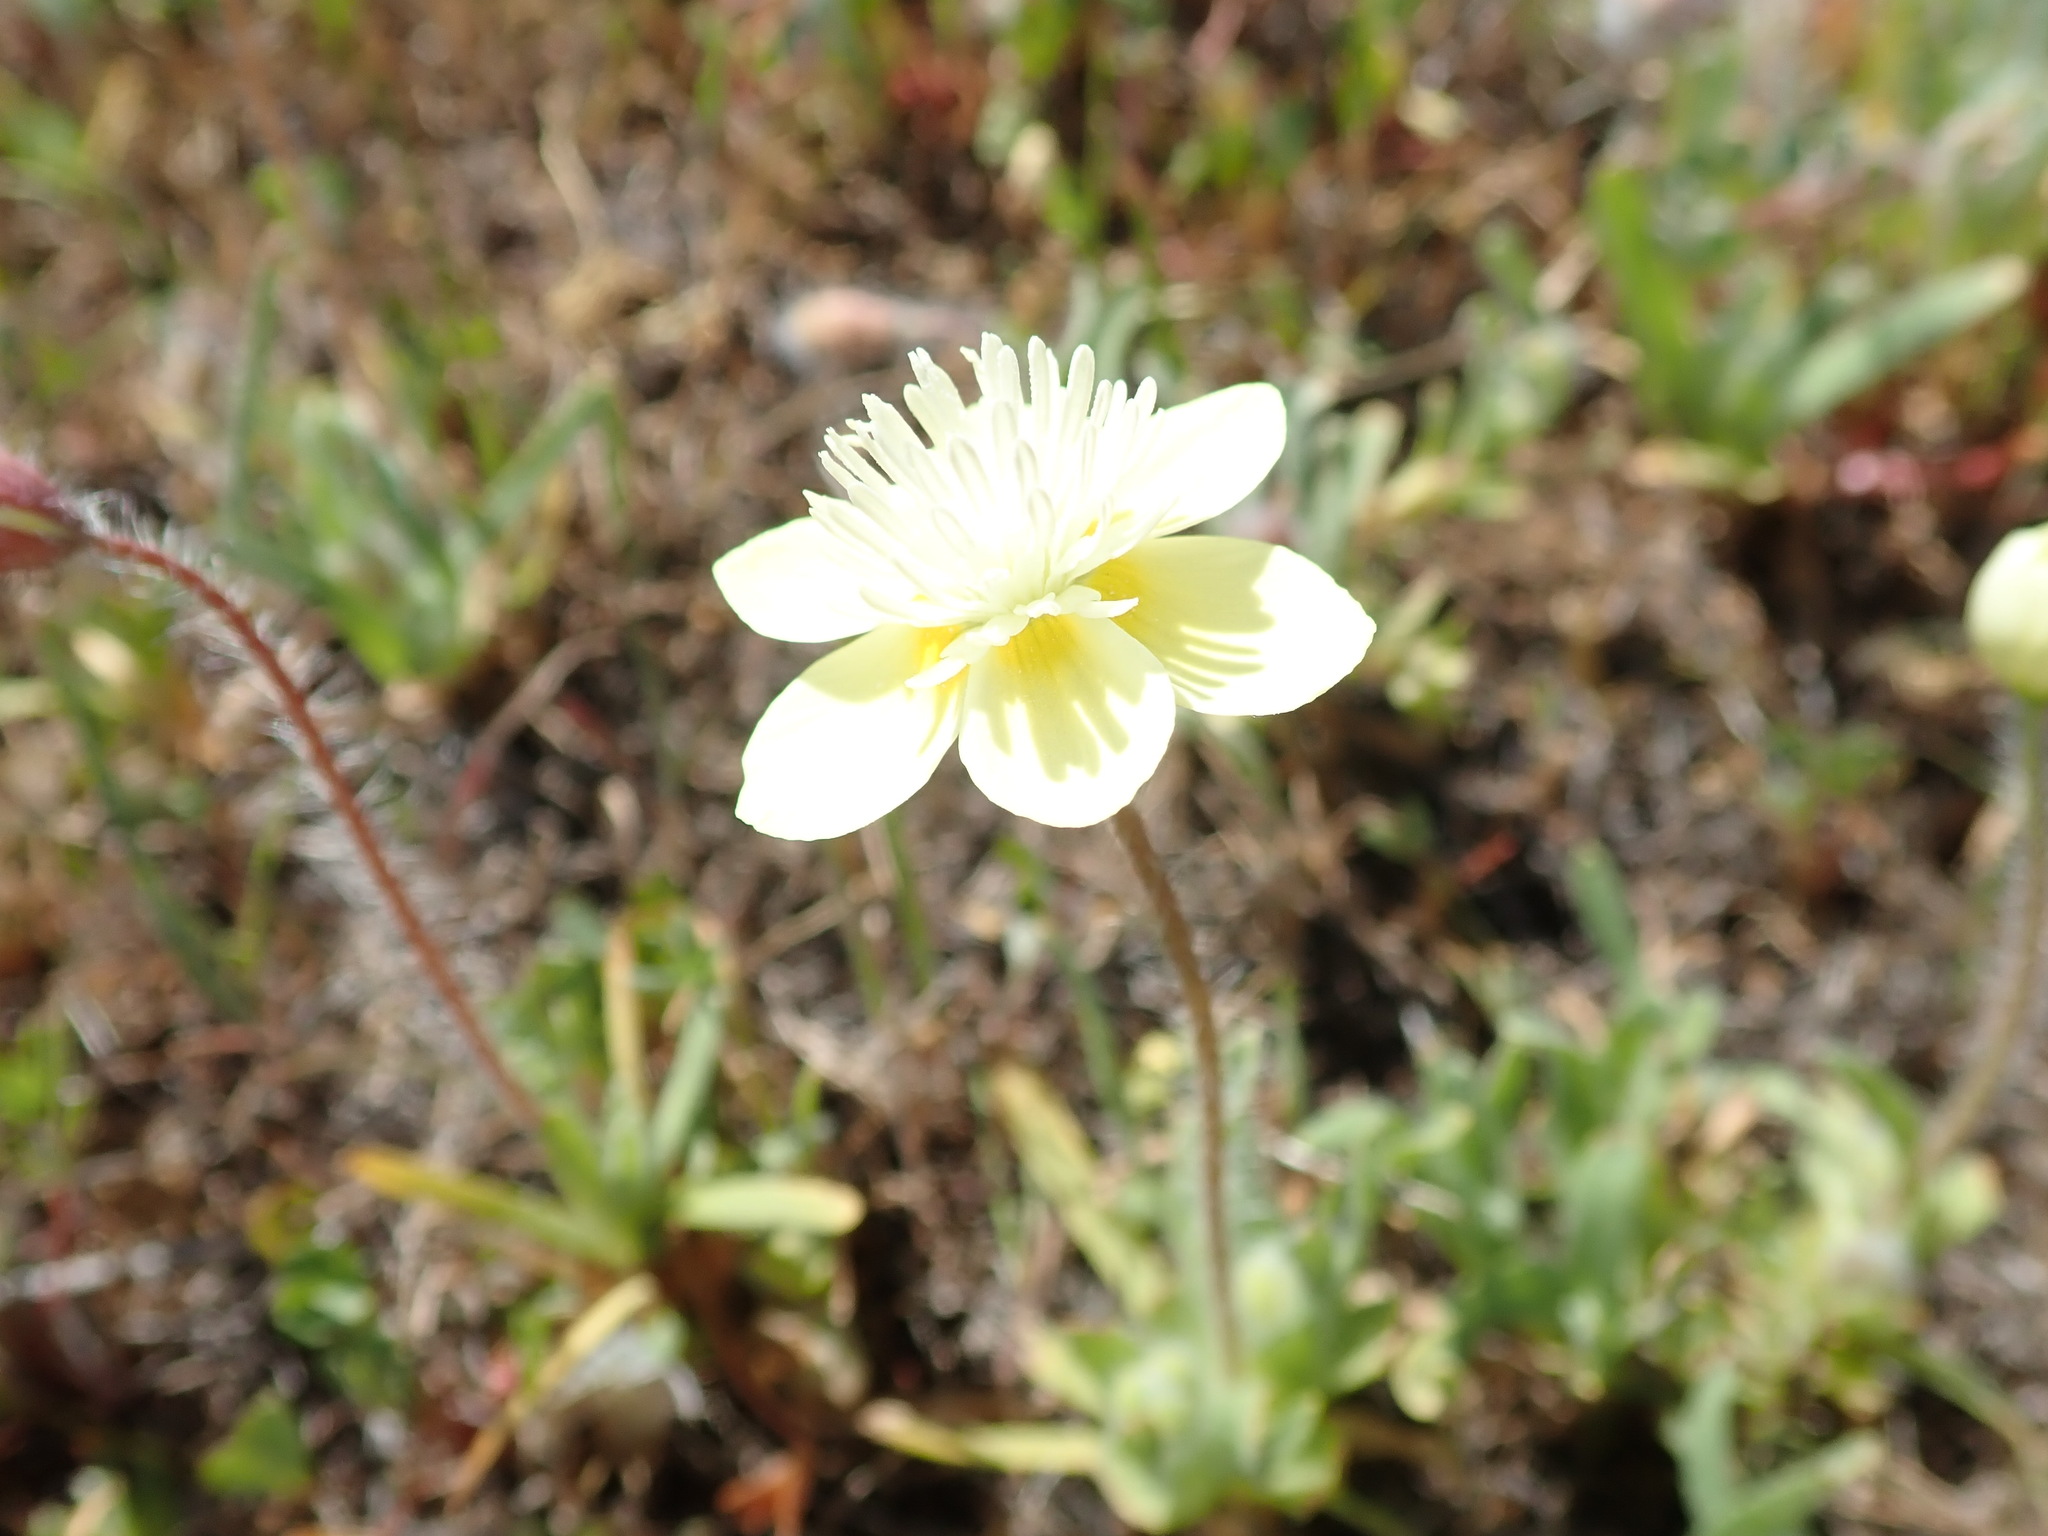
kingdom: Plantae
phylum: Tracheophyta
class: Magnoliopsida
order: Ranunculales
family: Papaveraceae
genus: Platystemon
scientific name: Platystemon californicus
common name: Cream-cups
